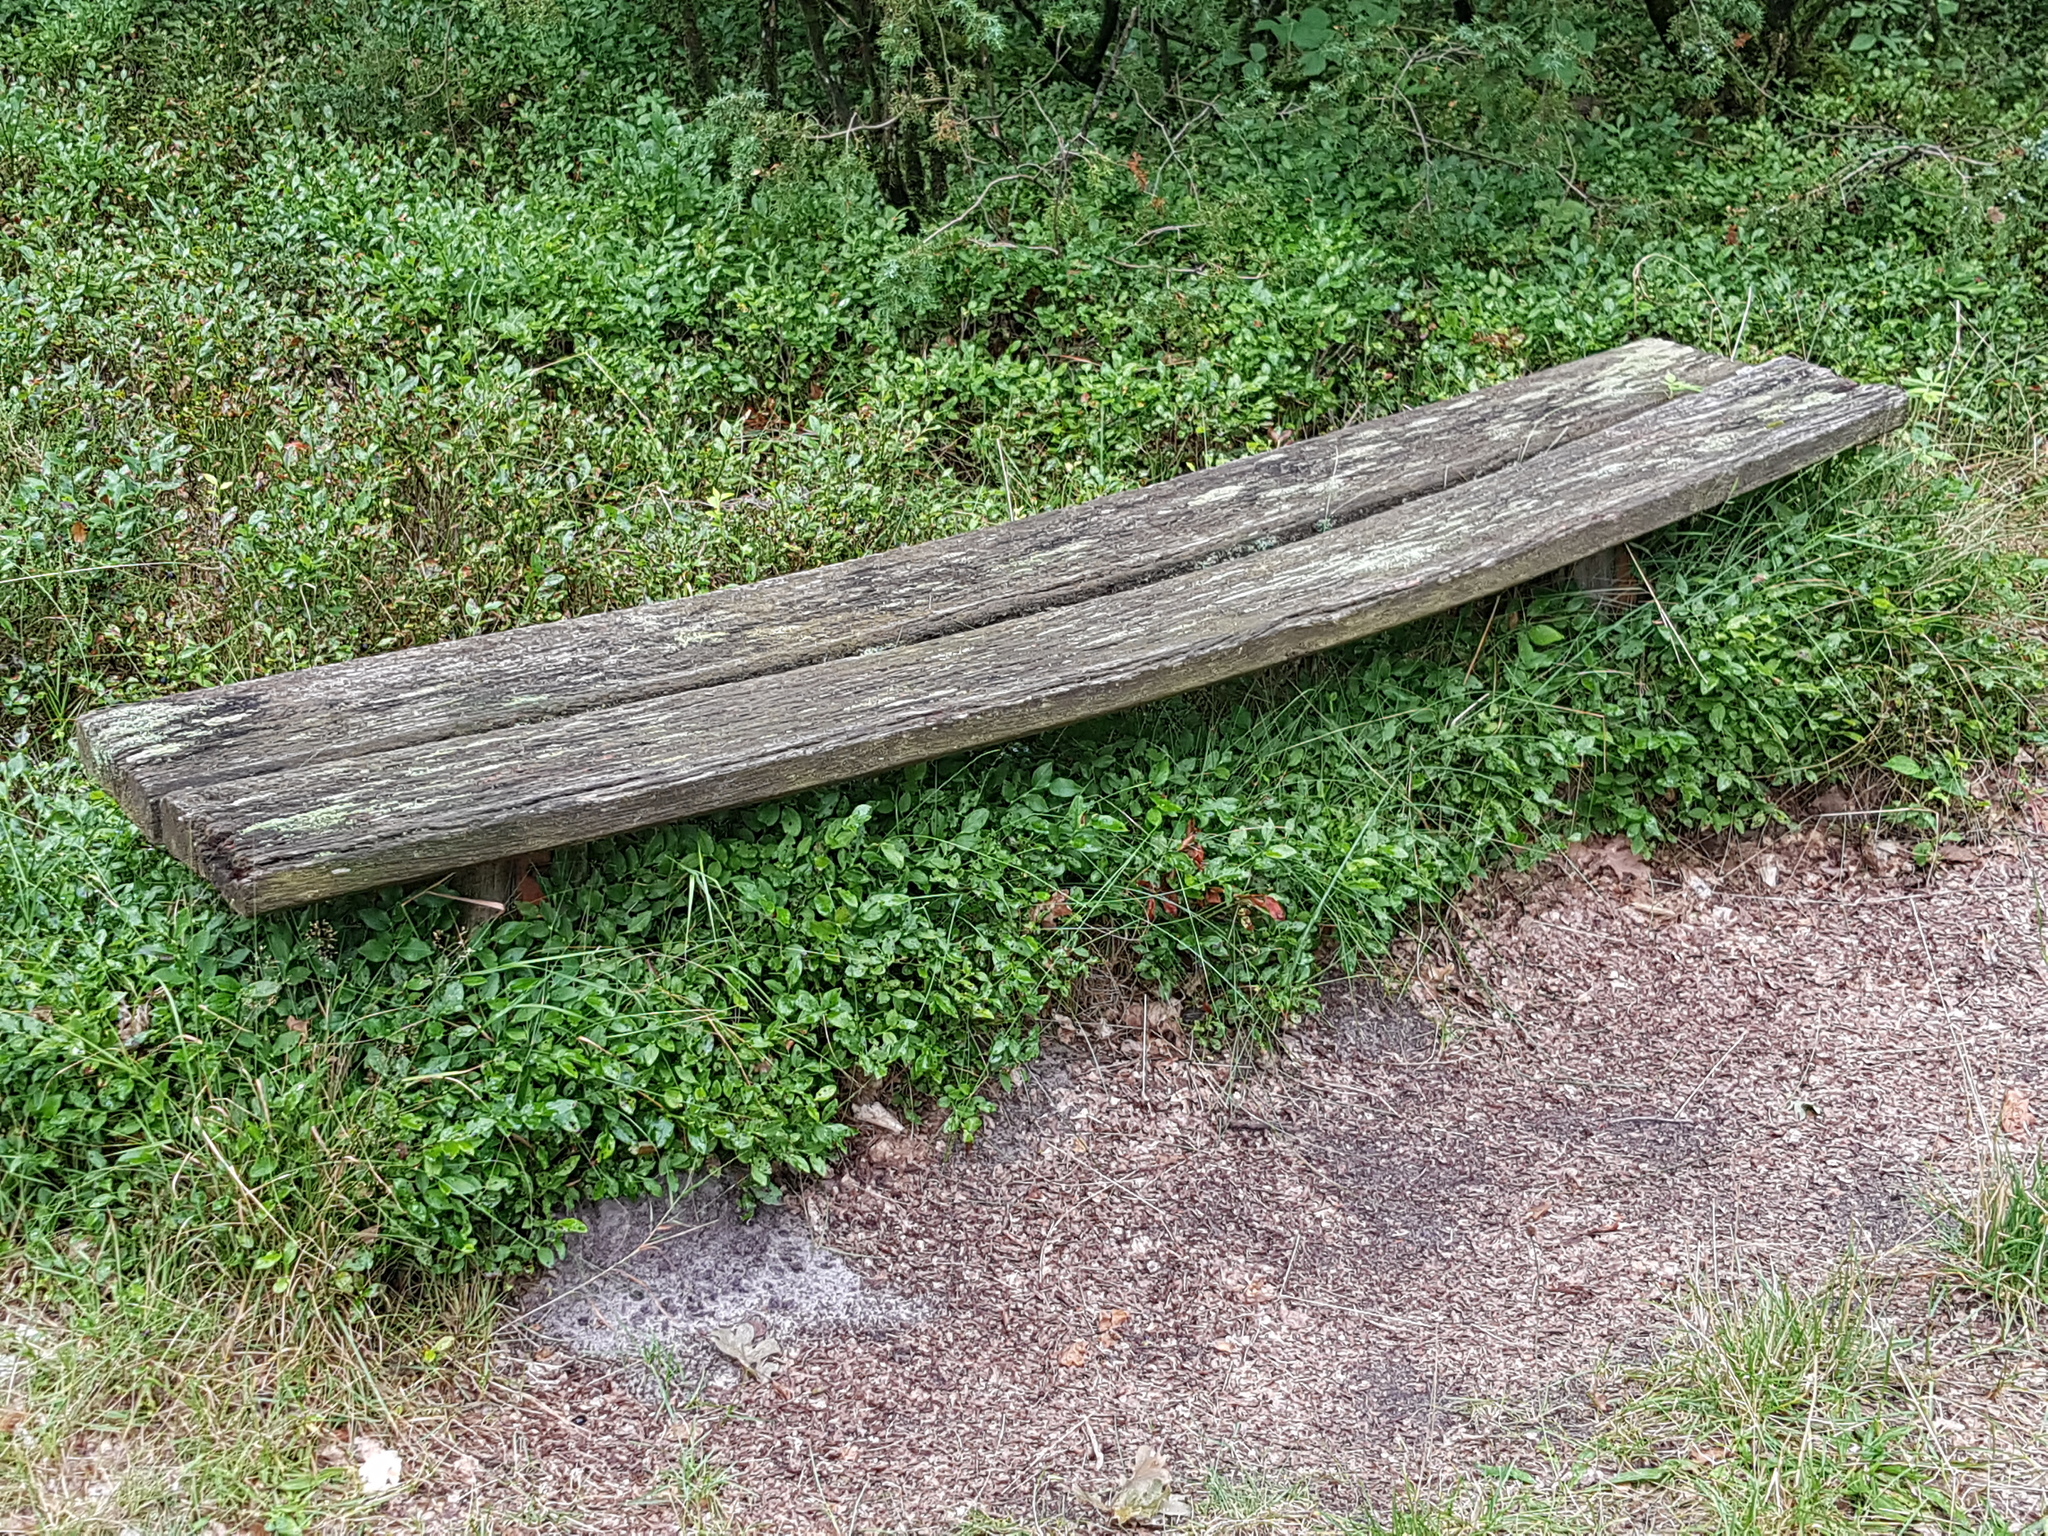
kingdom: Plantae
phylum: Tracheophyta
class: Magnoliopsida
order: Ericales
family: Ericaceae
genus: Vaccinium
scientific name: Vaccinium myrtillus
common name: Bilberry
